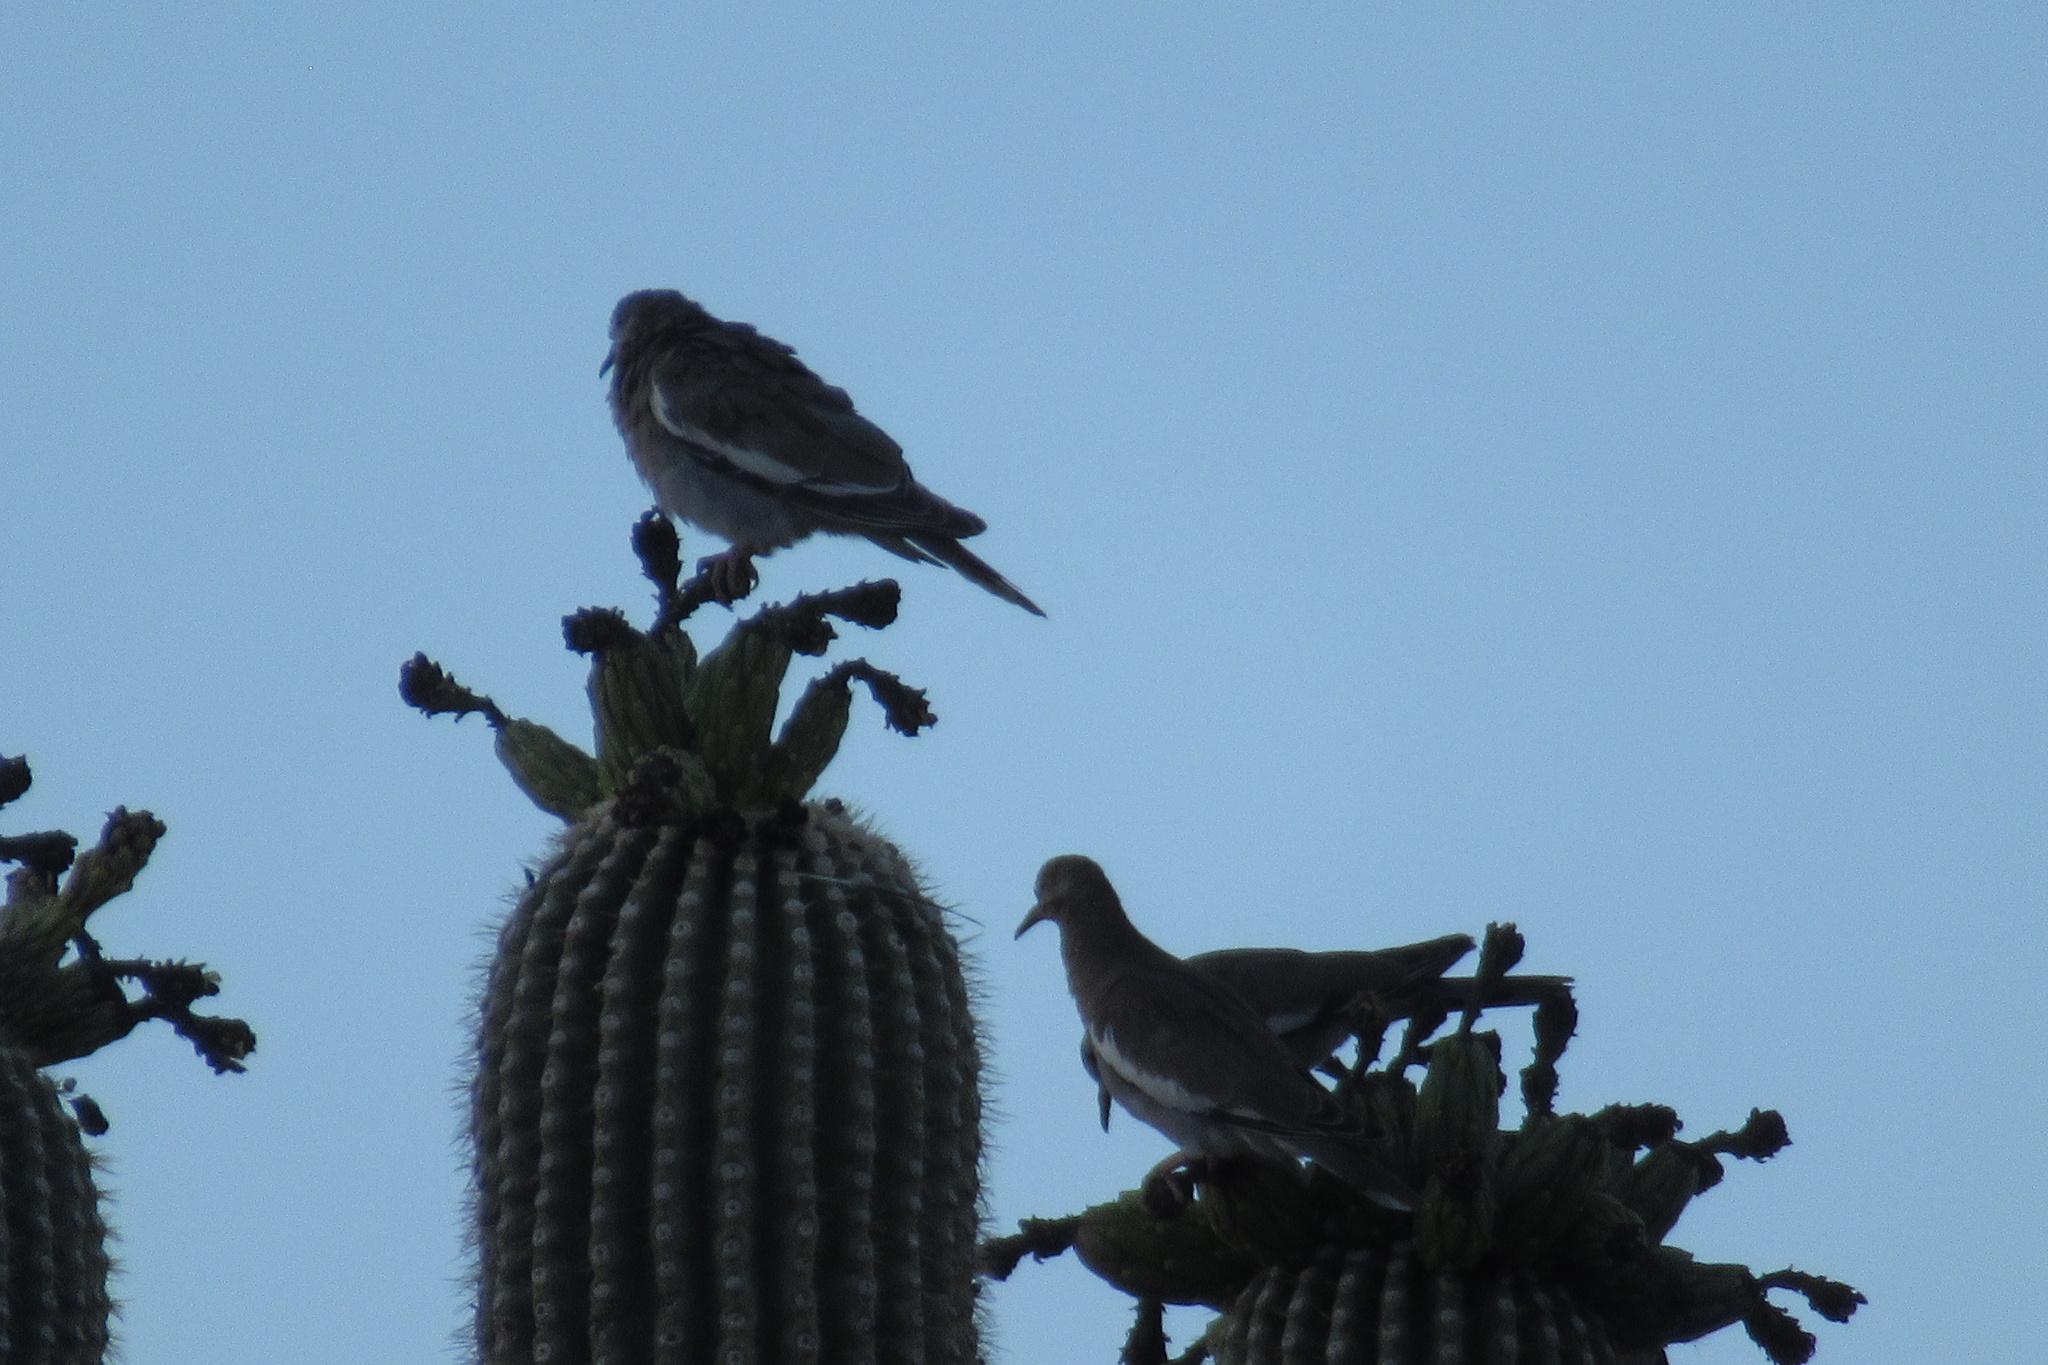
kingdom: Animalia
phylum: Chordata
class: Aves
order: Columbiformes
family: Columbidae
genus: Zenaida
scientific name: Zenaida asiatica
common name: White-winged dove
